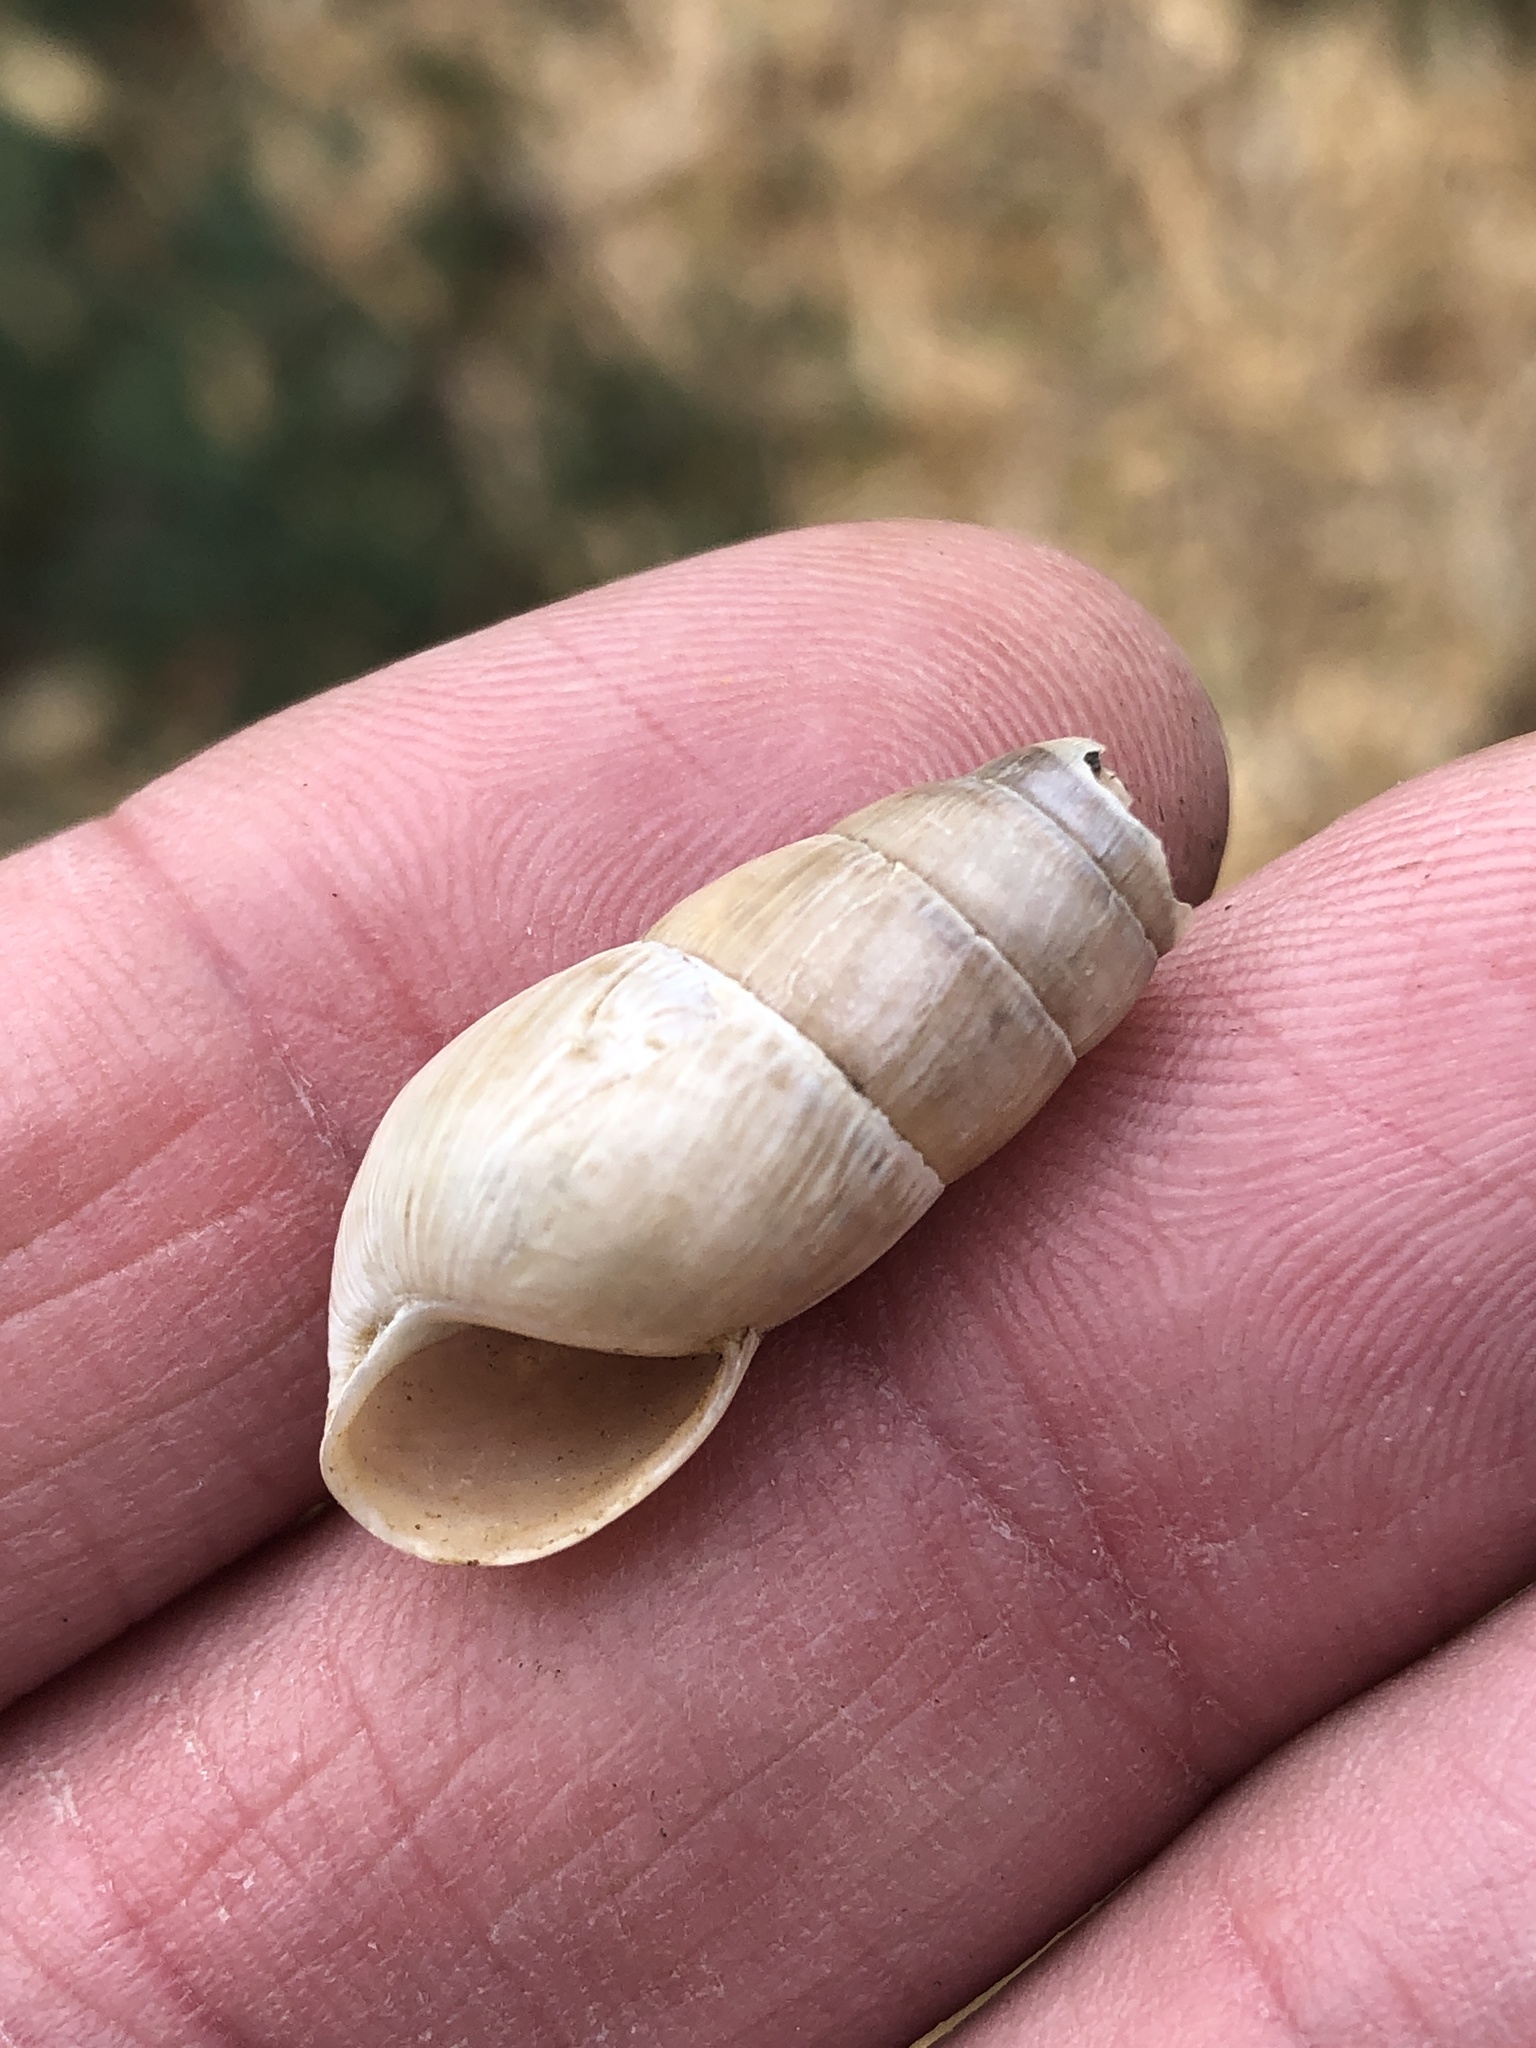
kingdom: Animalia
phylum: Mollusca
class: Gastropoda
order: Stylommatophora
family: Achatinidae
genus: Rumina
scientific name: Rumina decollata
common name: Decollate snail
